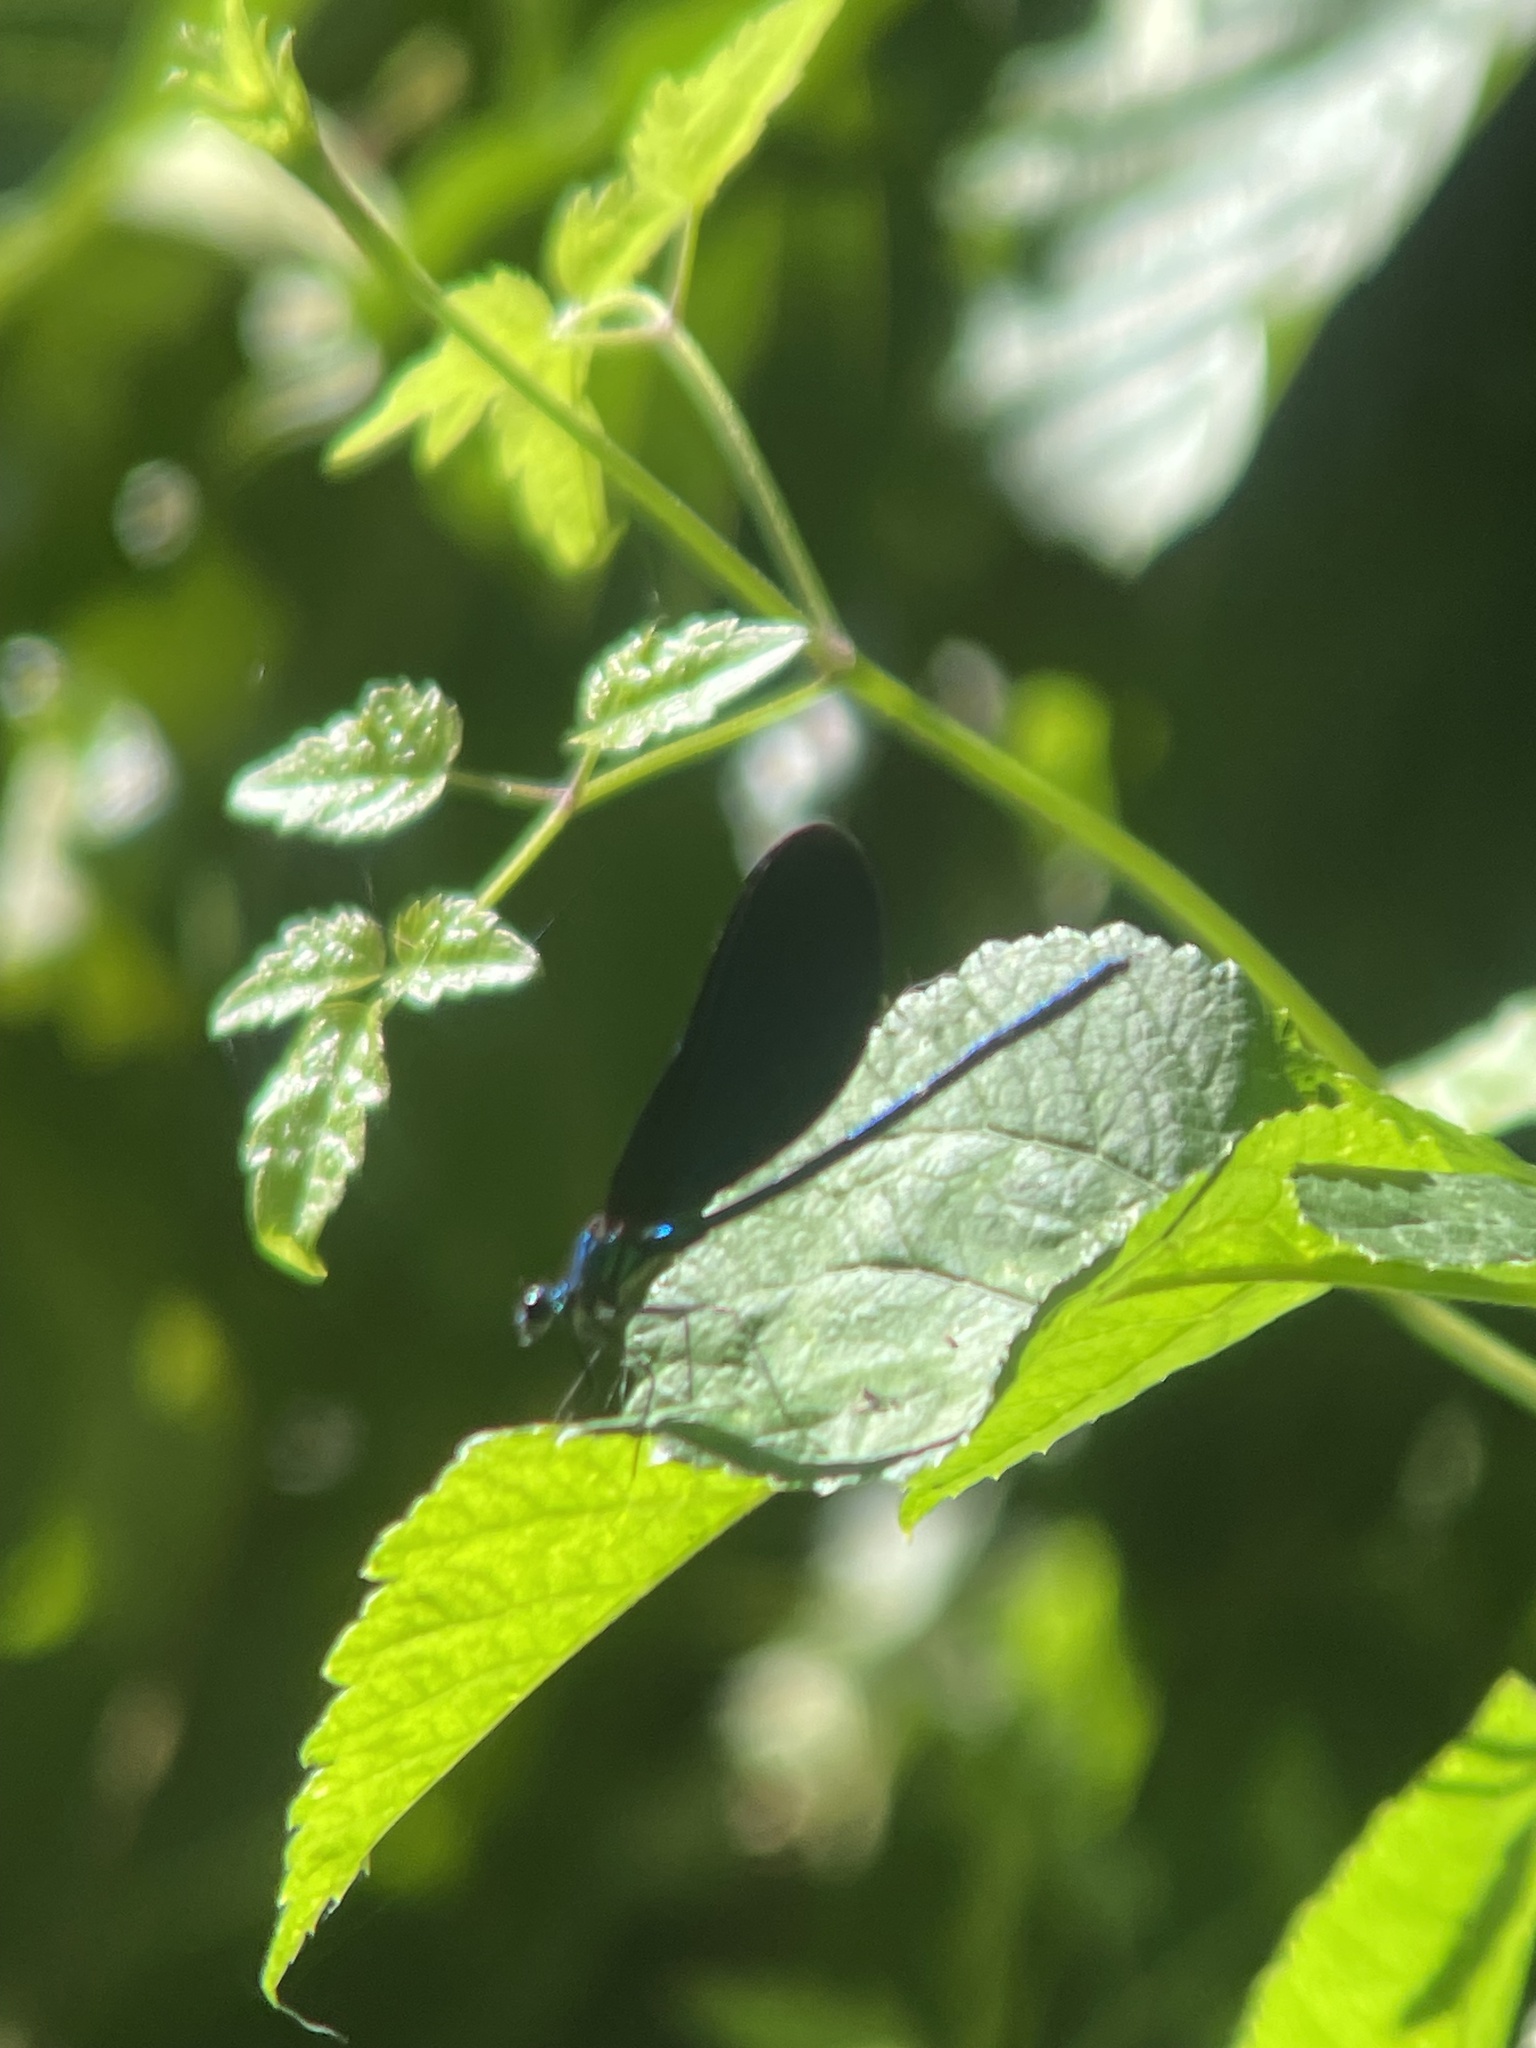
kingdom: Animalia
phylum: Arthropoda
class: Insecta
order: Odonata
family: Calopterygidae
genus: Calopteryx
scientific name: Calopteryx virgo
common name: Beautiful demoiselle
